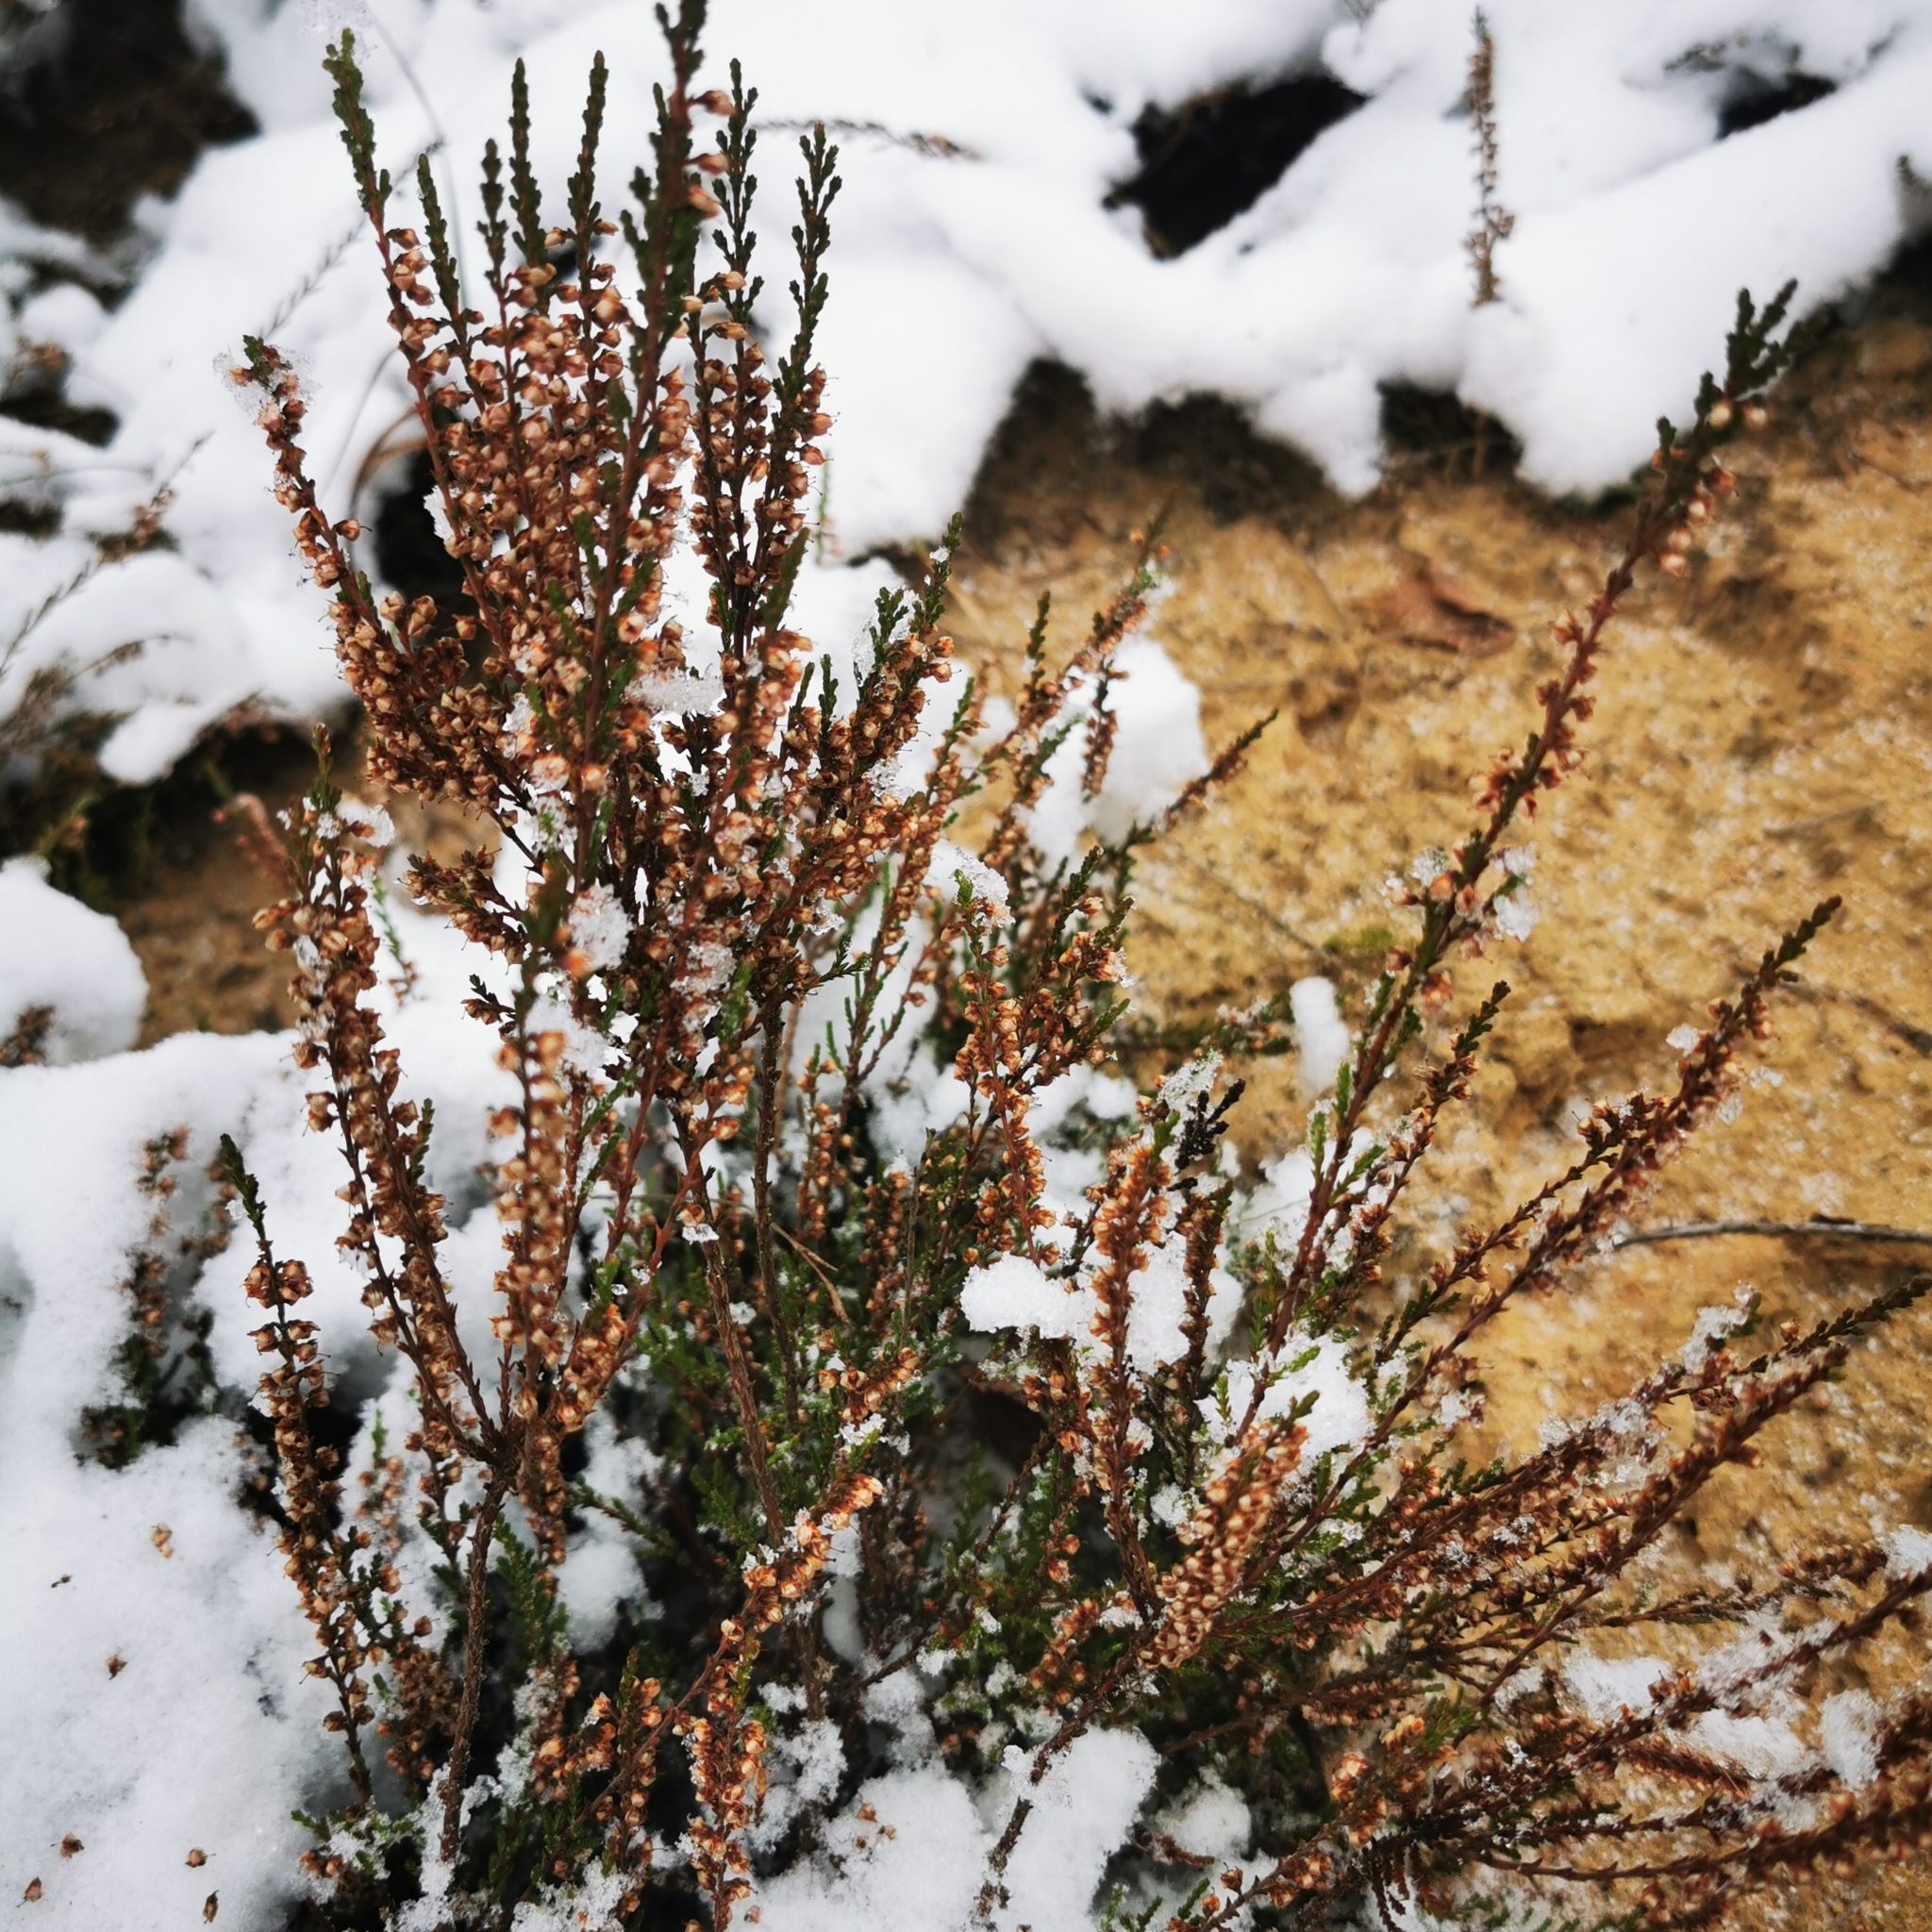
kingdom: Plantae
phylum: Tracheophyta
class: Magnoliopsida
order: Ericales
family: Ericaceae
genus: Calluna
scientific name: Calluna vulgaris
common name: Heather
